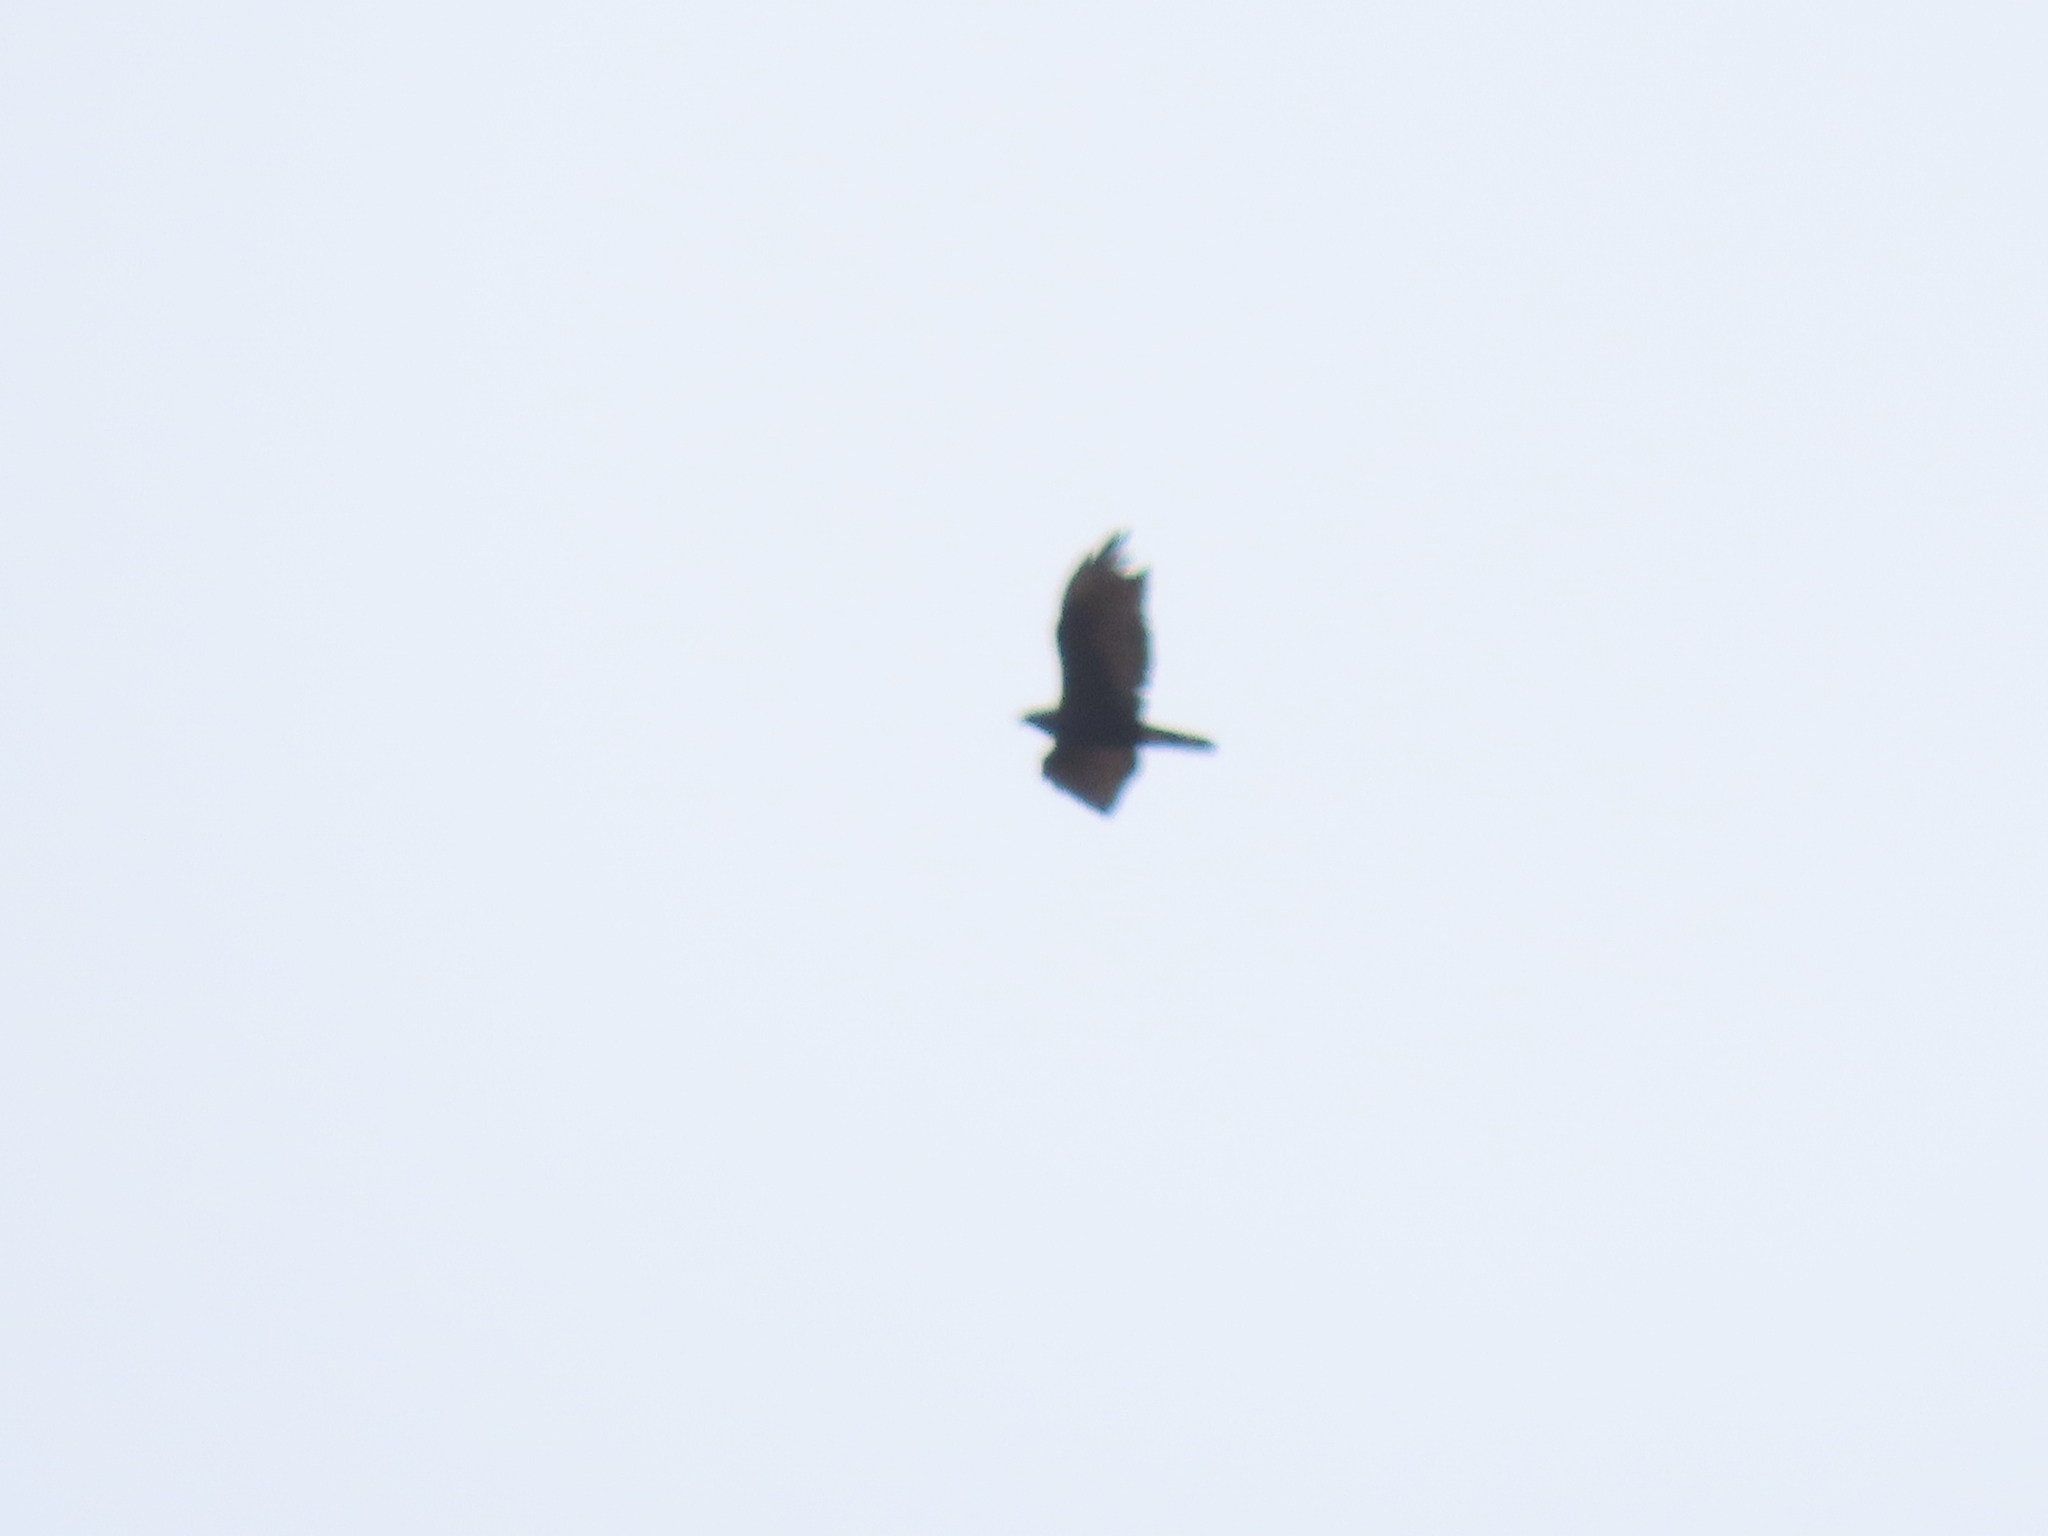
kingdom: Animalia
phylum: Chordata
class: Aves
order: Accipitriformes
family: Accipitridae
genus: Buteo
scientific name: Buteo albonotatus
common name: Zone-tailed hawk
